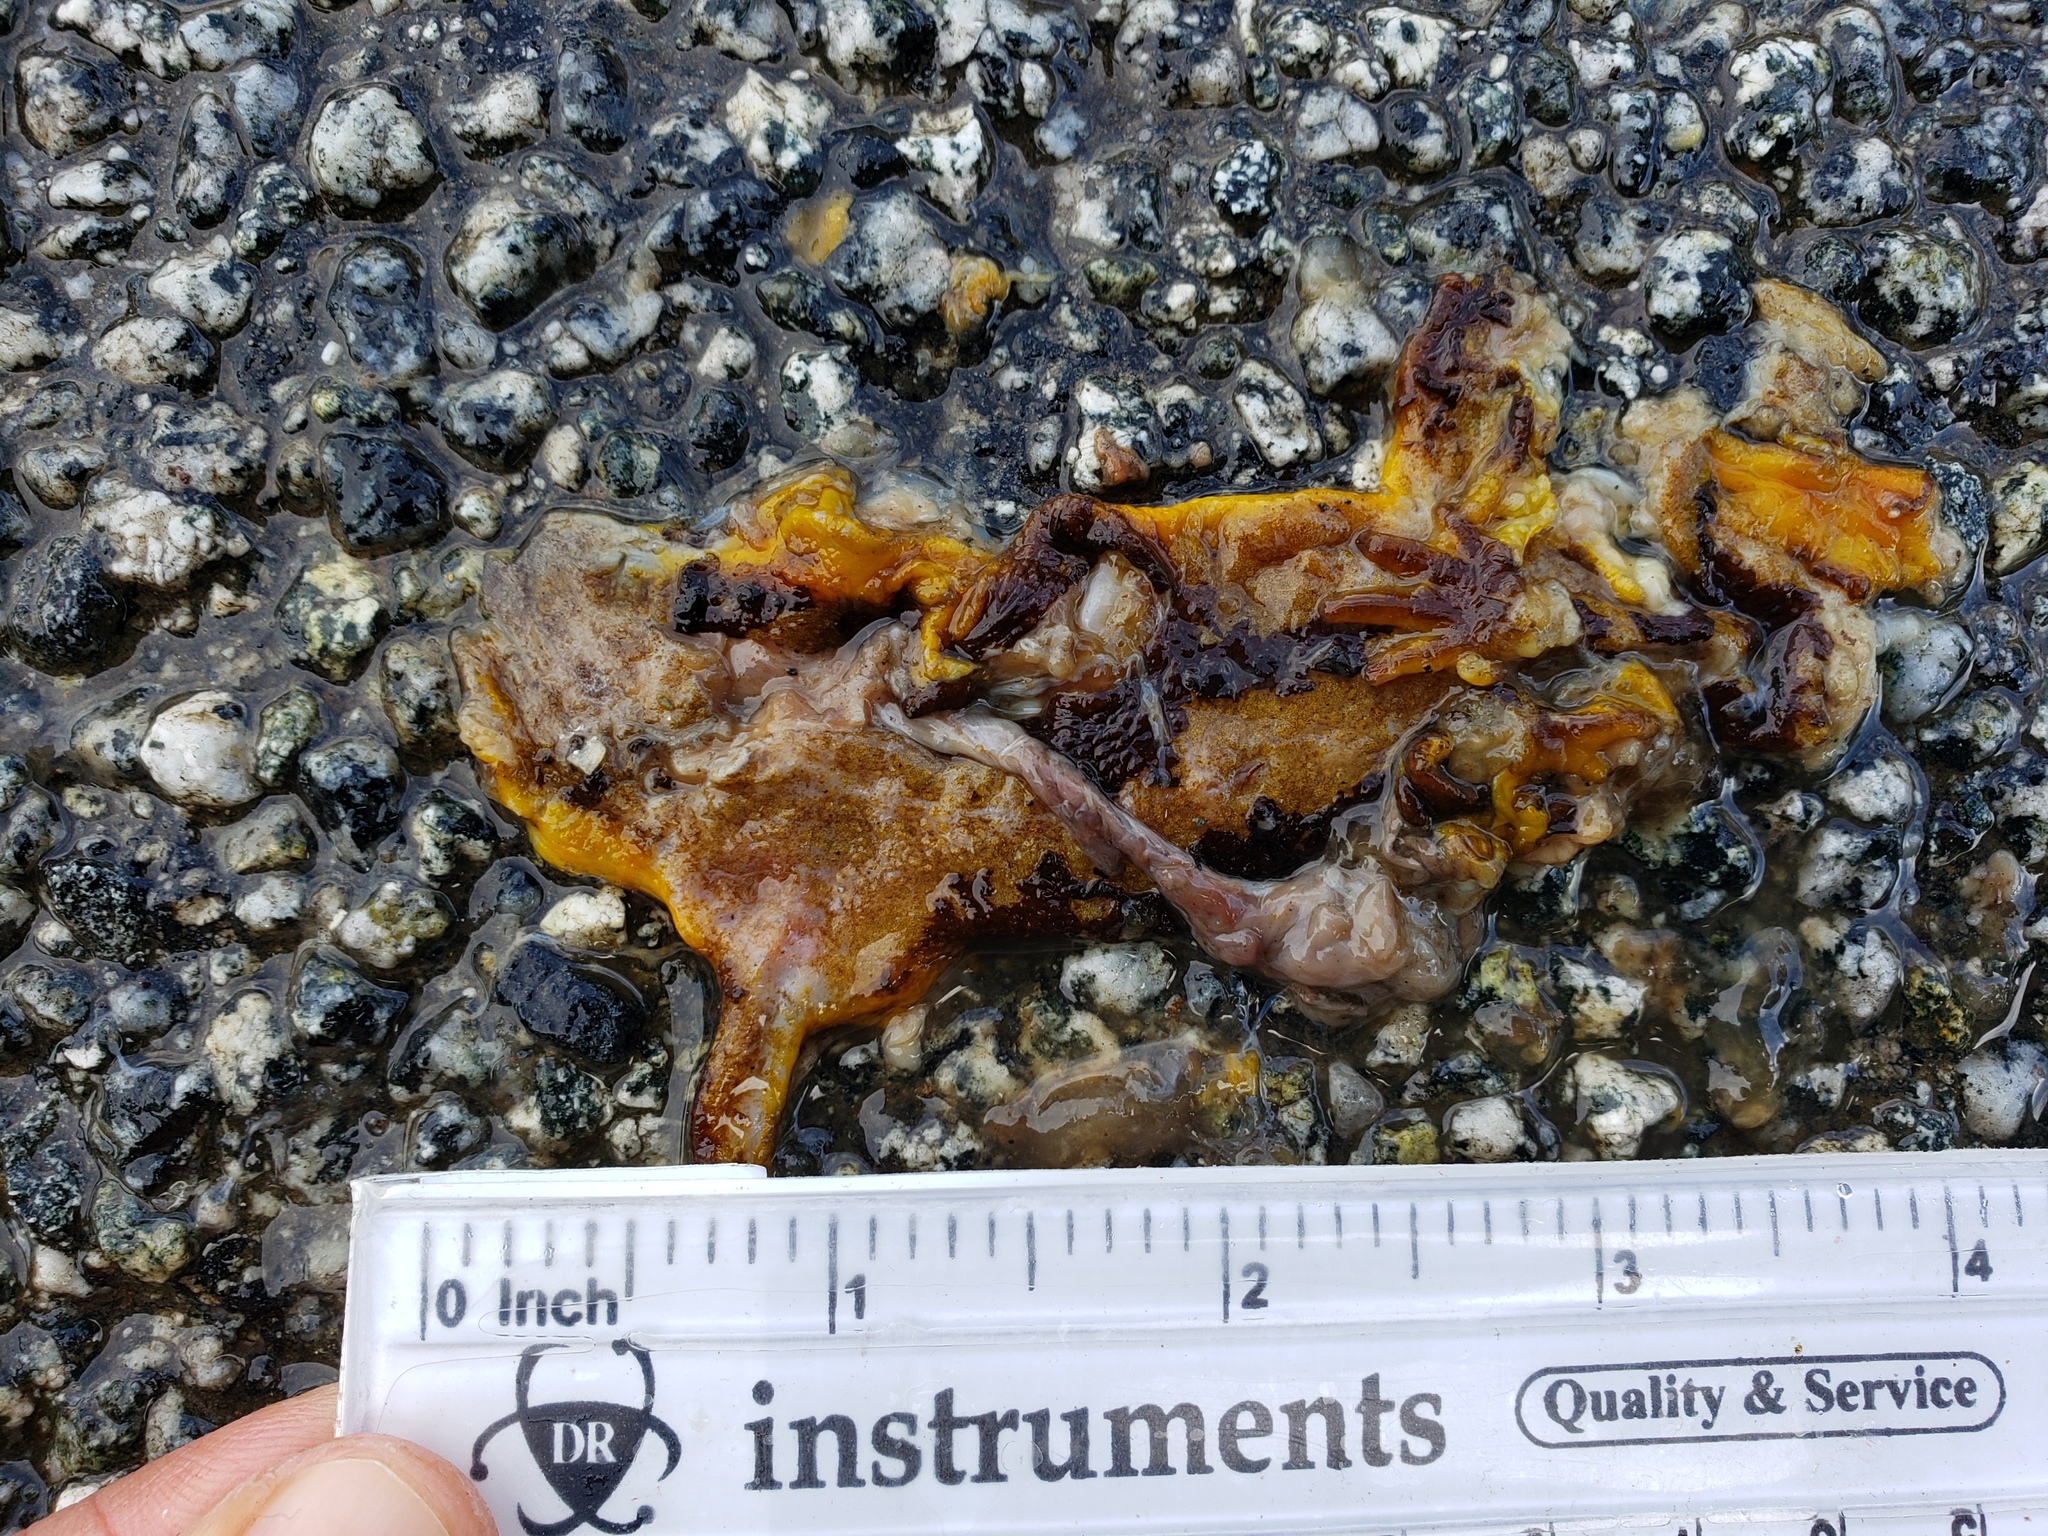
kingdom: Animalia
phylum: Chordata
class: Amphibia
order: Caudata
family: Salamandridae
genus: Taricha
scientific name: Taricha
